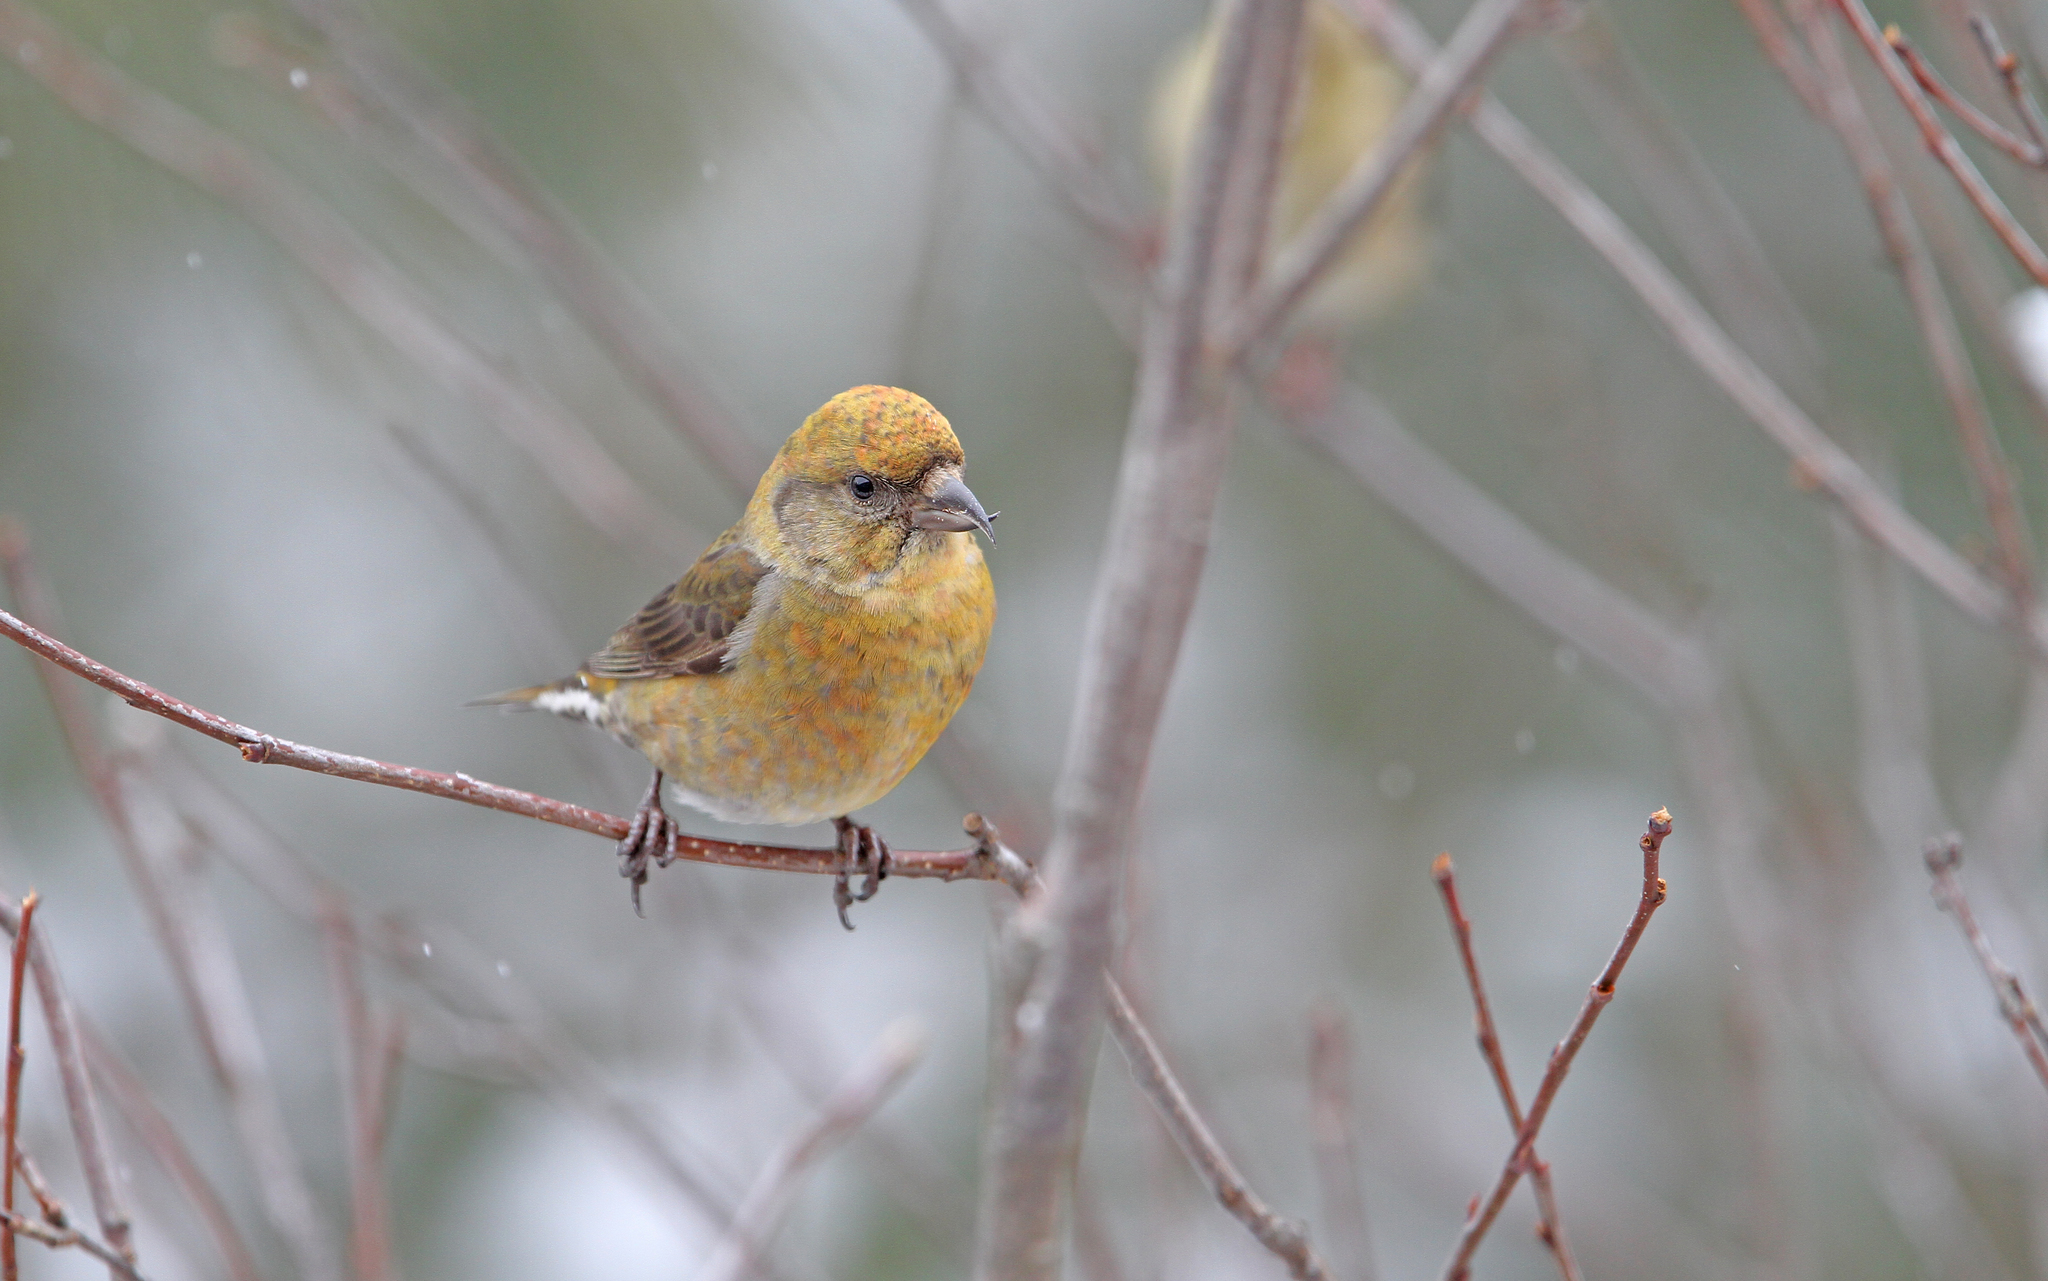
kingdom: Animalia
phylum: Chordata
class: Aves
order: Passeriformes
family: Fringillidae
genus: Loxia
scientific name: Loxia curvirostra
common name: Red crossbill
